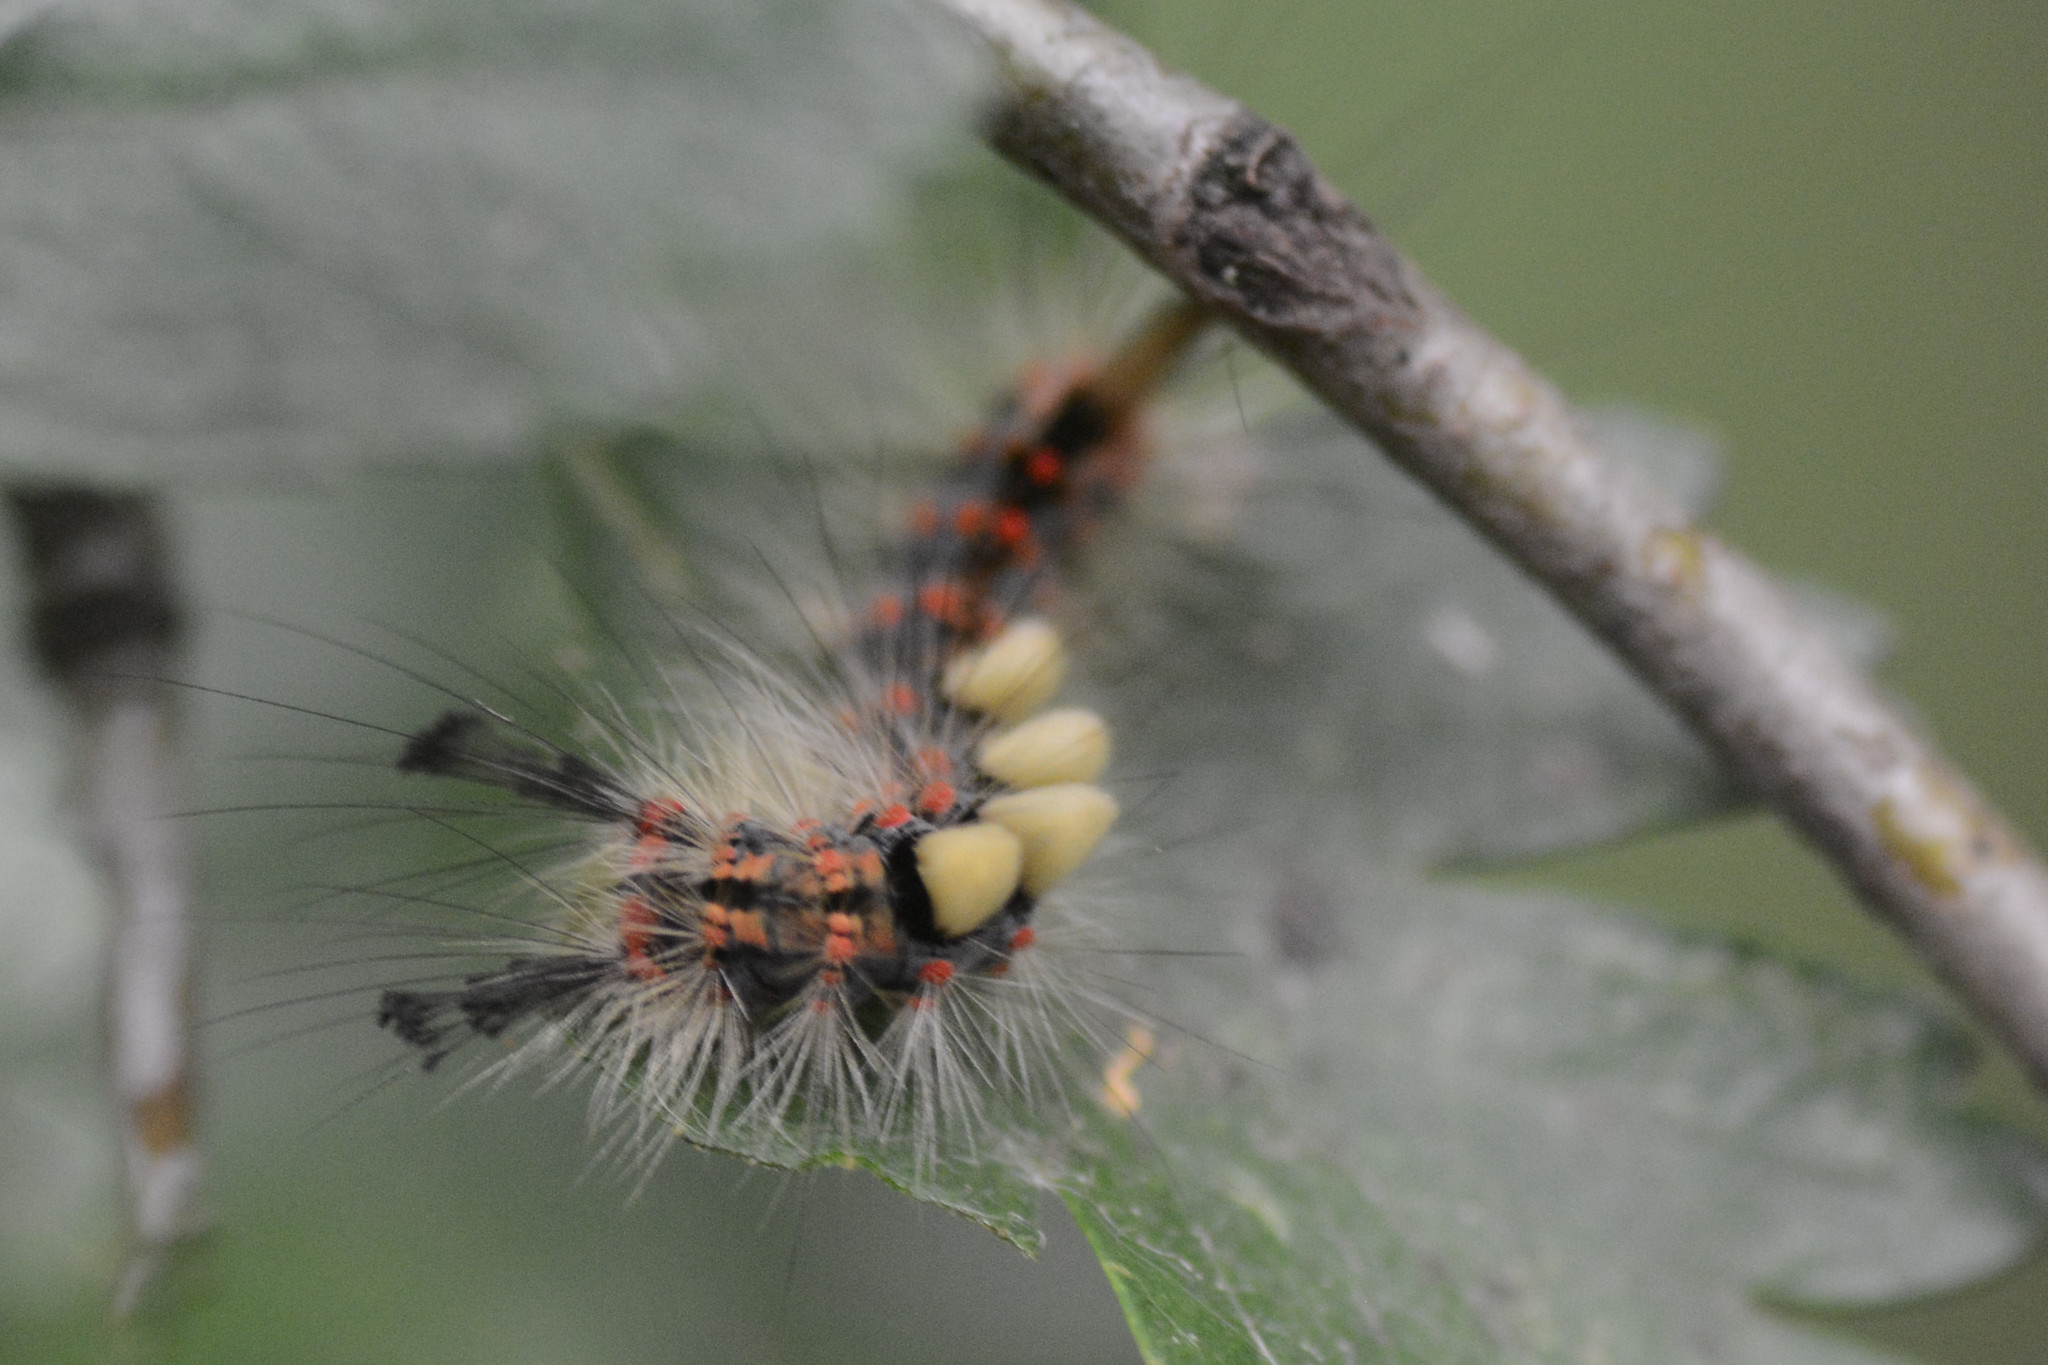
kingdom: Animalia
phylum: Arthropoda
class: Insecta
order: Lepidoptera
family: Erebidae
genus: Orgyia
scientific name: Orgyia antiqua
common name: Vapourer
